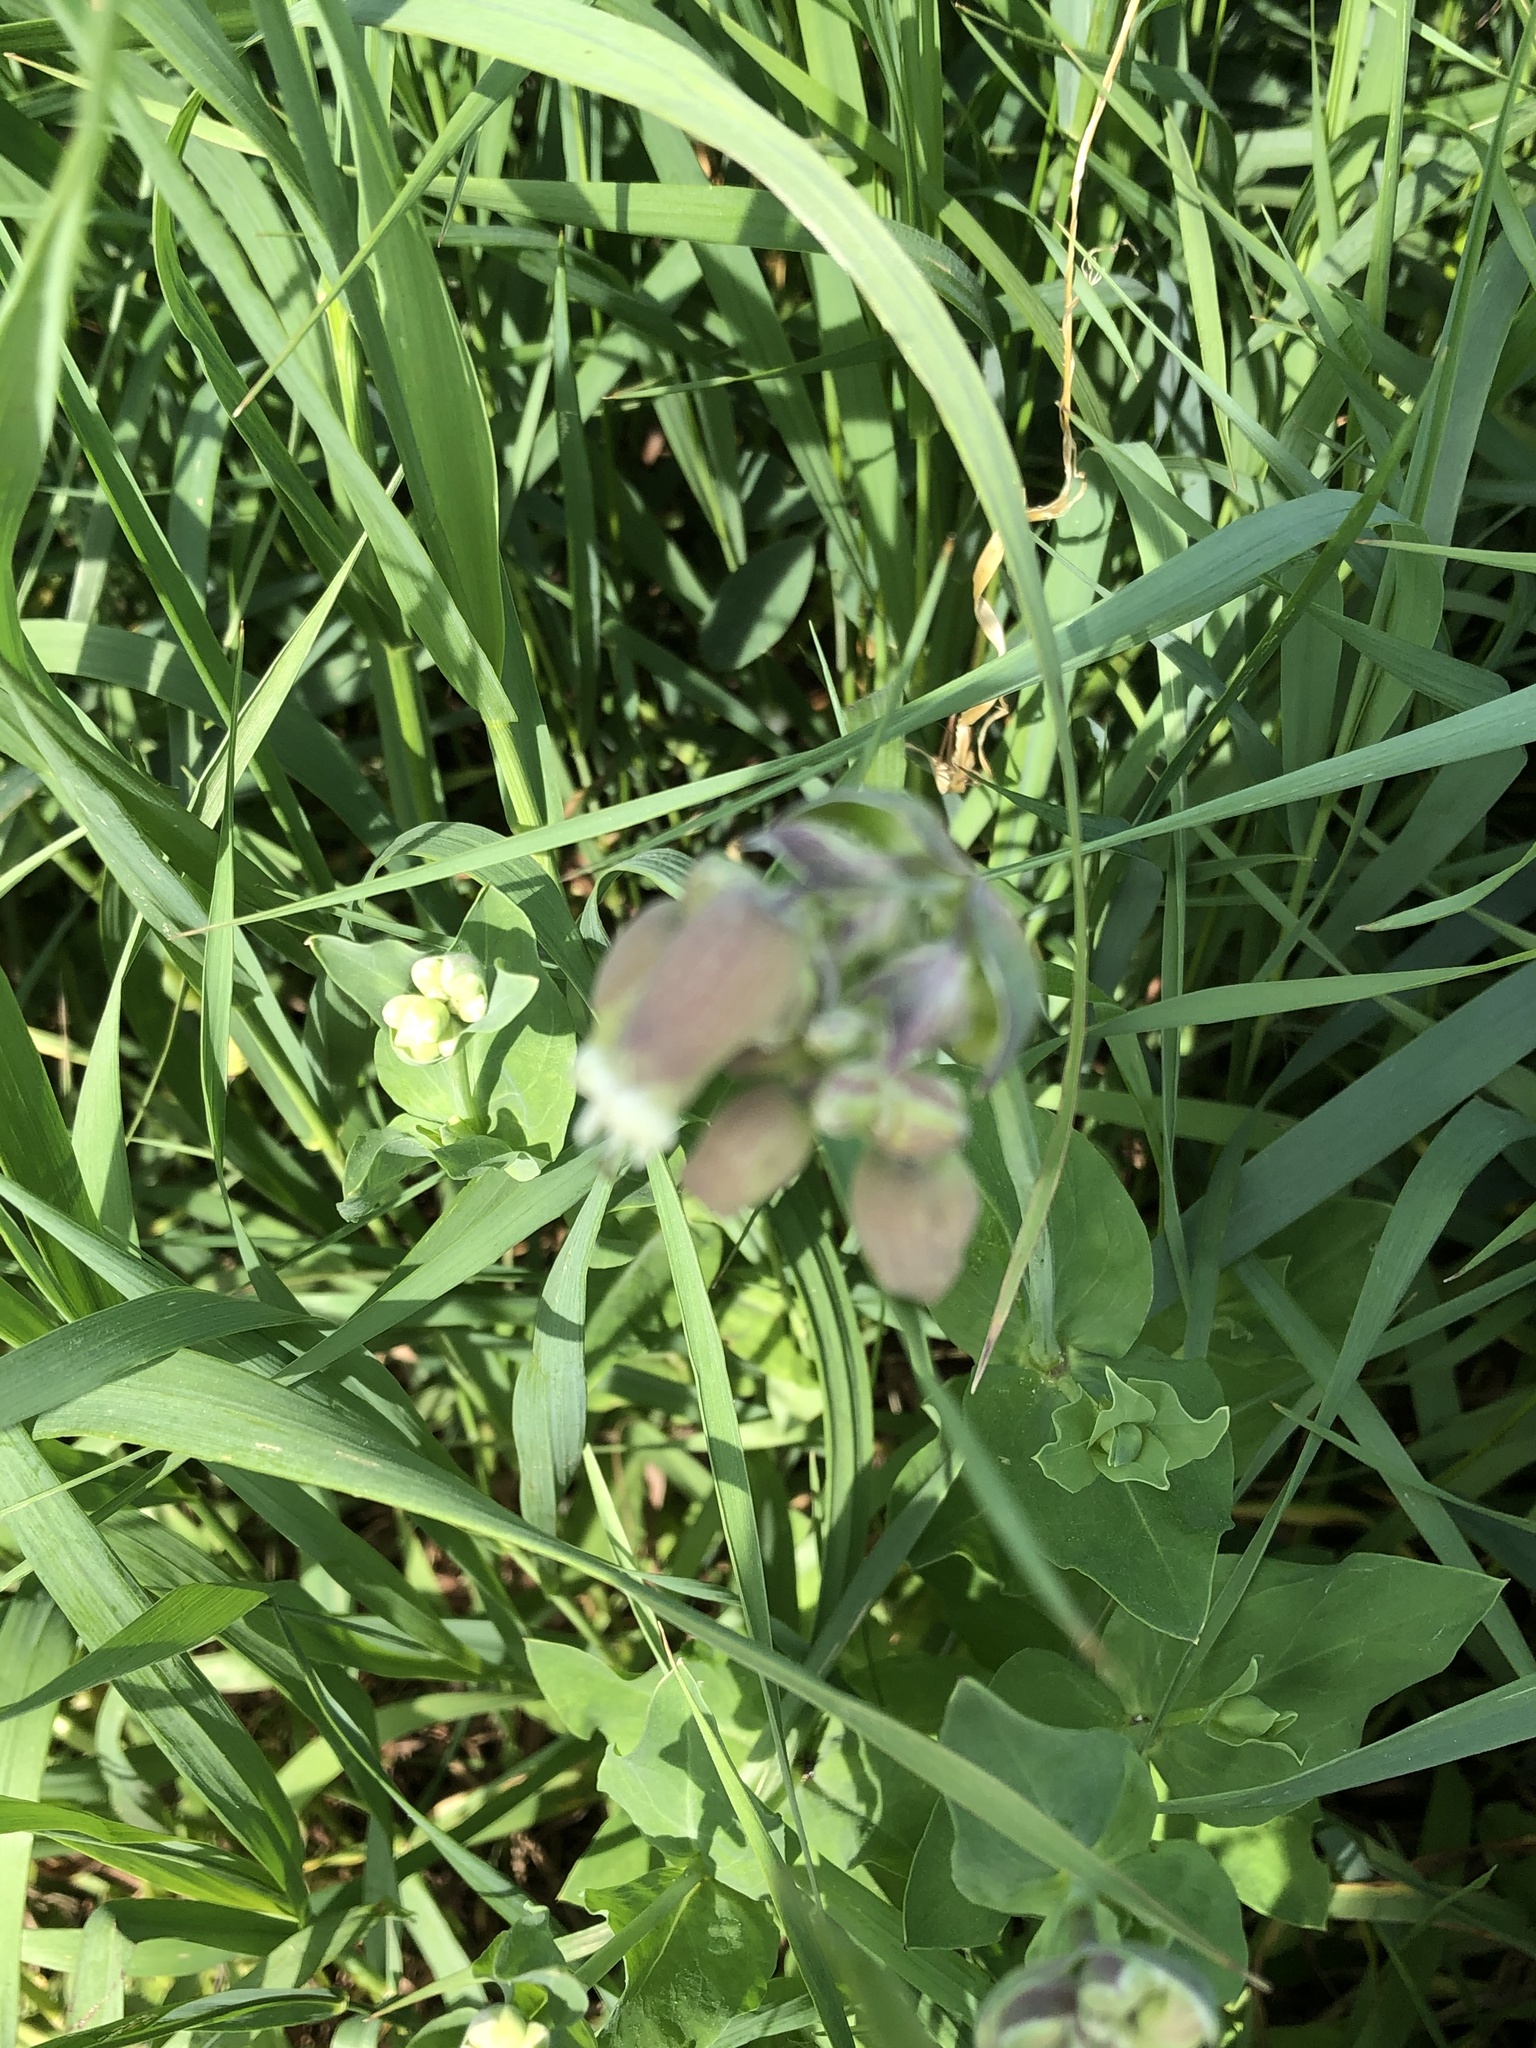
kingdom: Plantae
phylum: Tracheophyta
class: Magnoliopsida
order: Caryophyllales
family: Caryophyllaceae
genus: Silene
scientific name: Silene vulgaris
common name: Bladder campion
